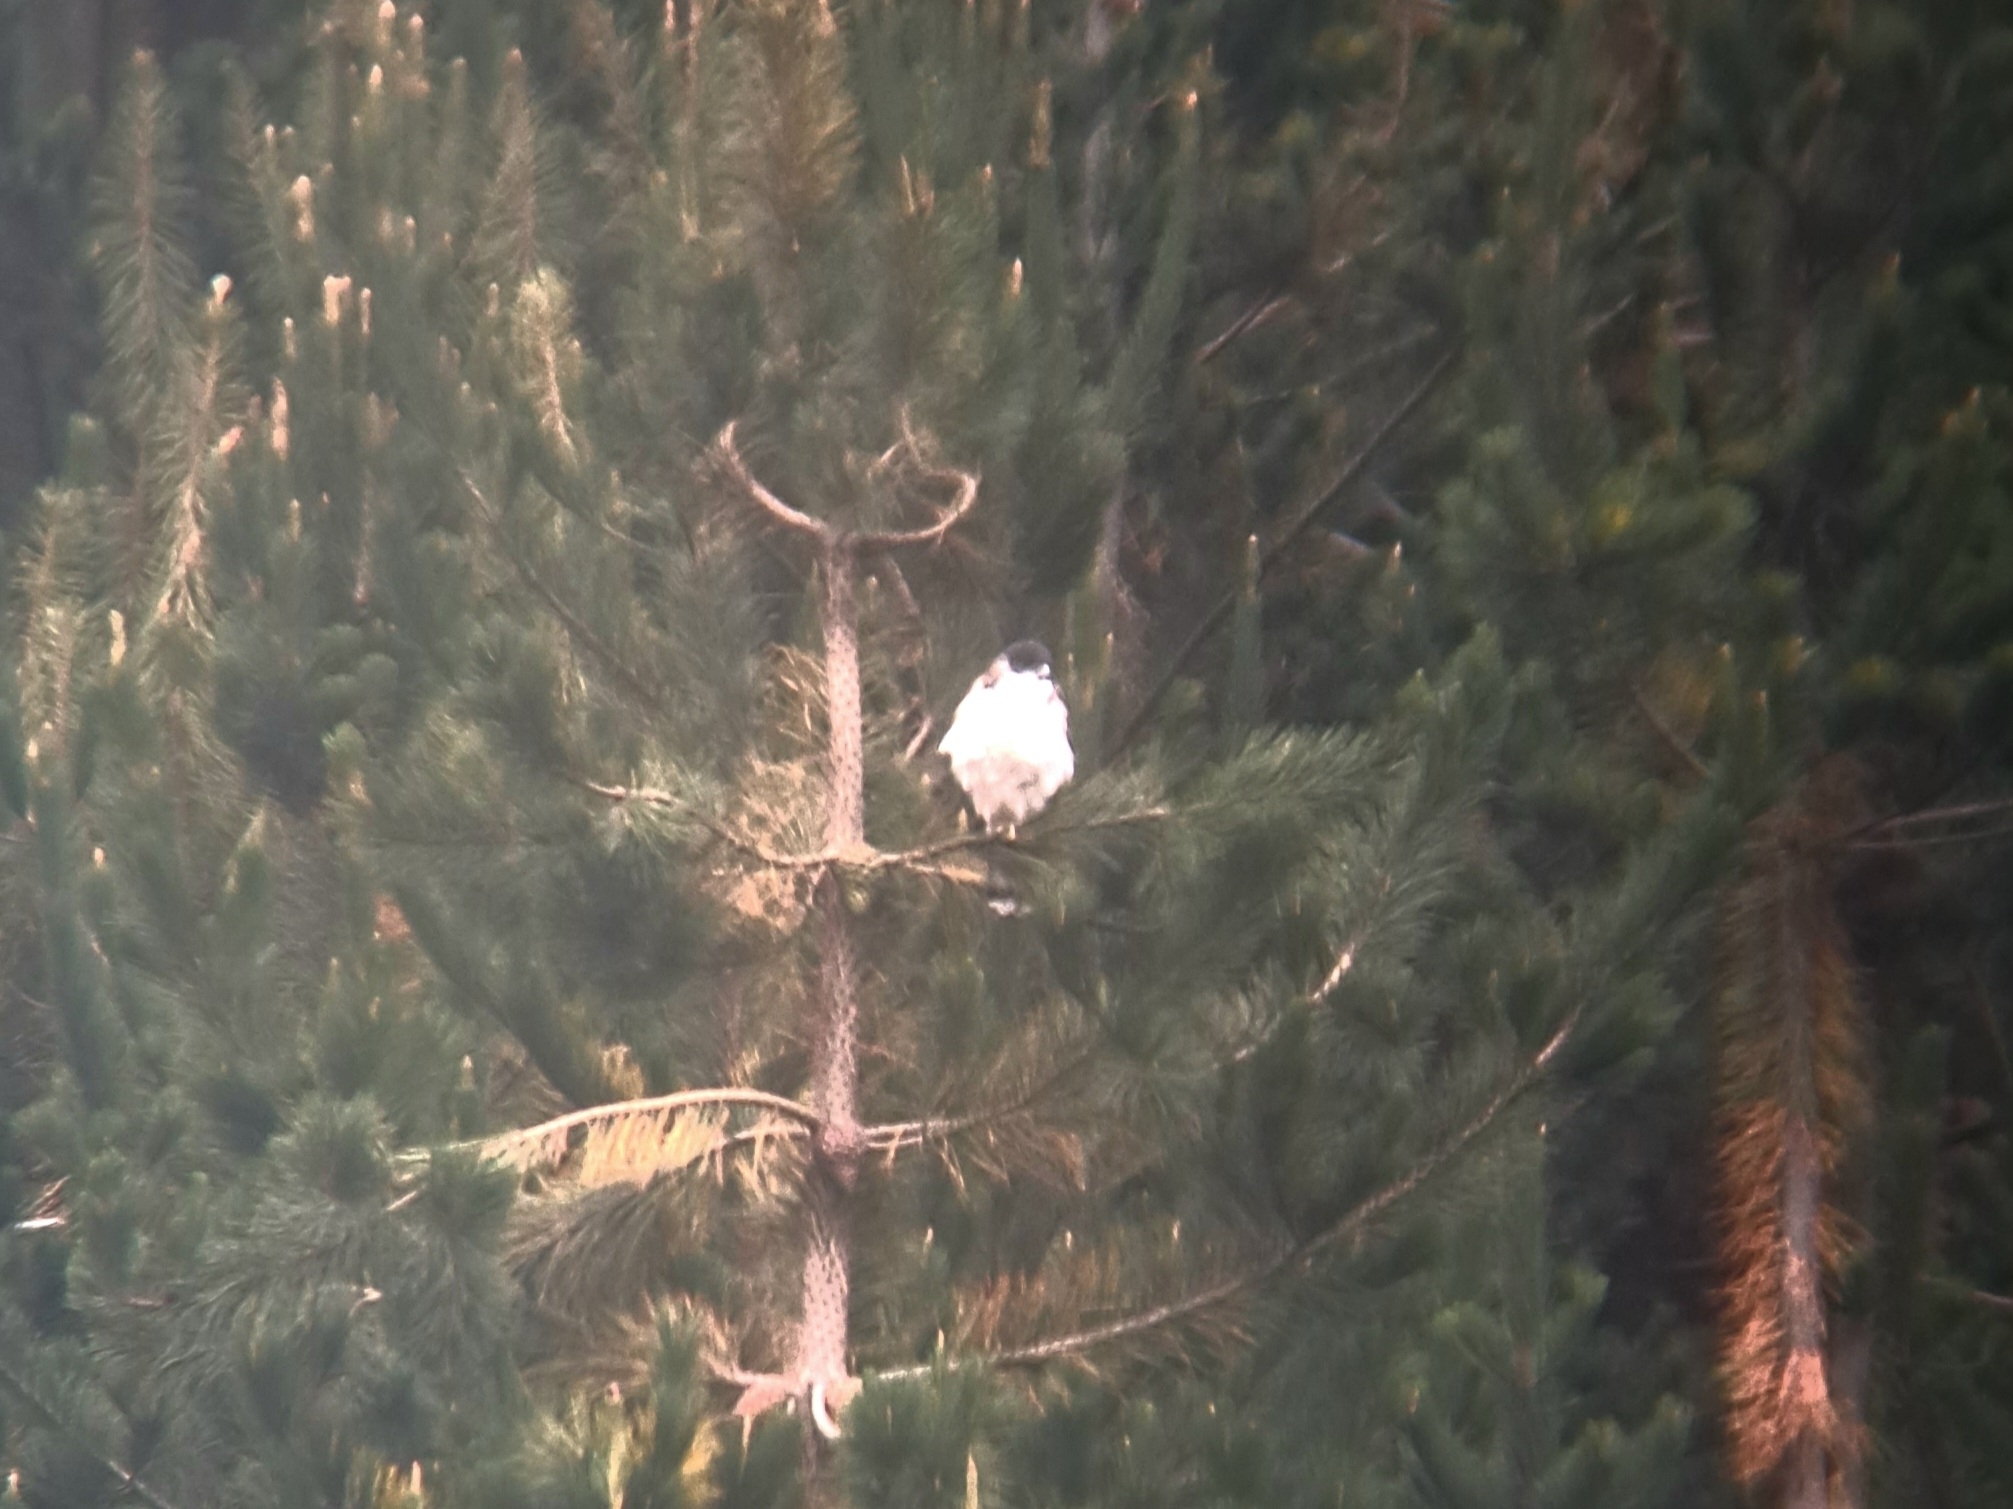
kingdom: Animalia
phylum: Chordata
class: Aves
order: Accipitriformes
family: Accipitridae
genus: Buteo
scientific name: Buteo polyosoma
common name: Variable hawk
